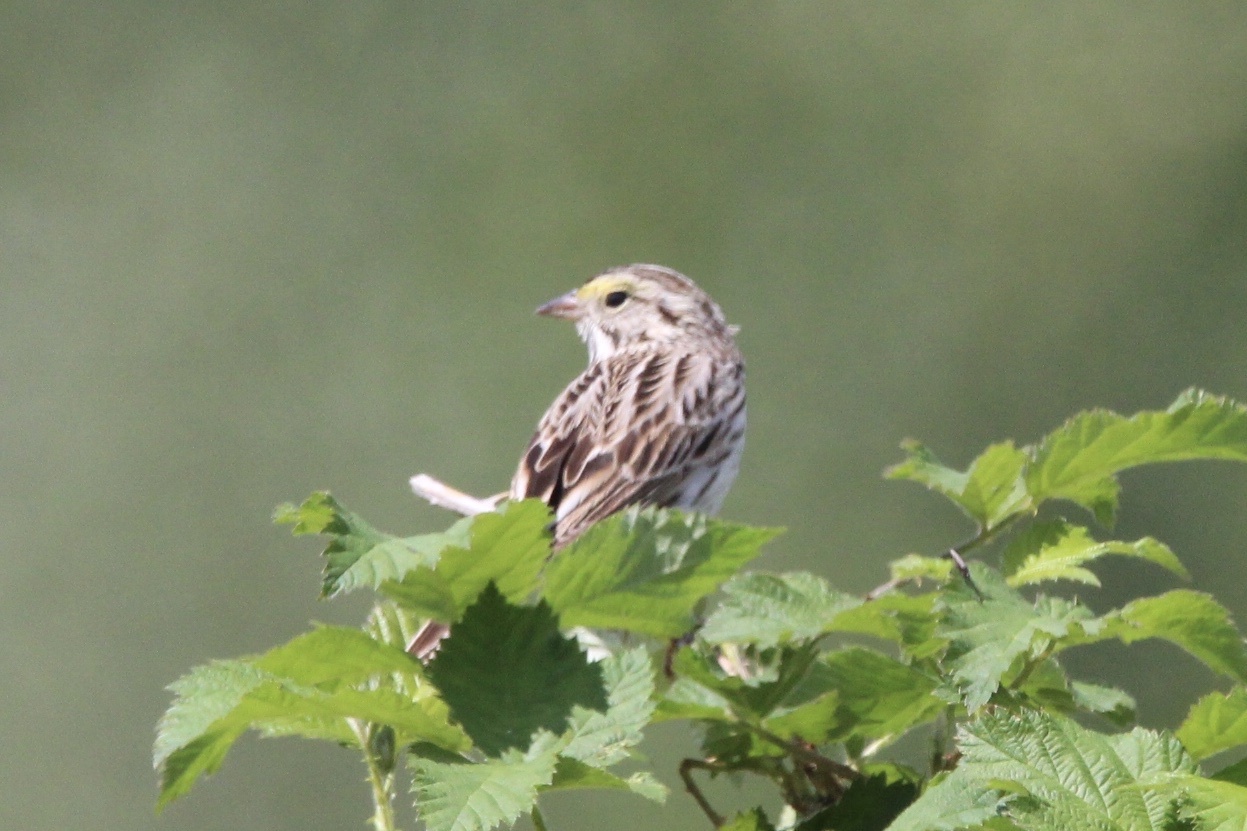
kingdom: Animalia
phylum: Chordata
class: Aves
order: Passeriformes
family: Passerellidae
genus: Passerculus
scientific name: Passerculus sandwichensis
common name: Savannah sparrow
